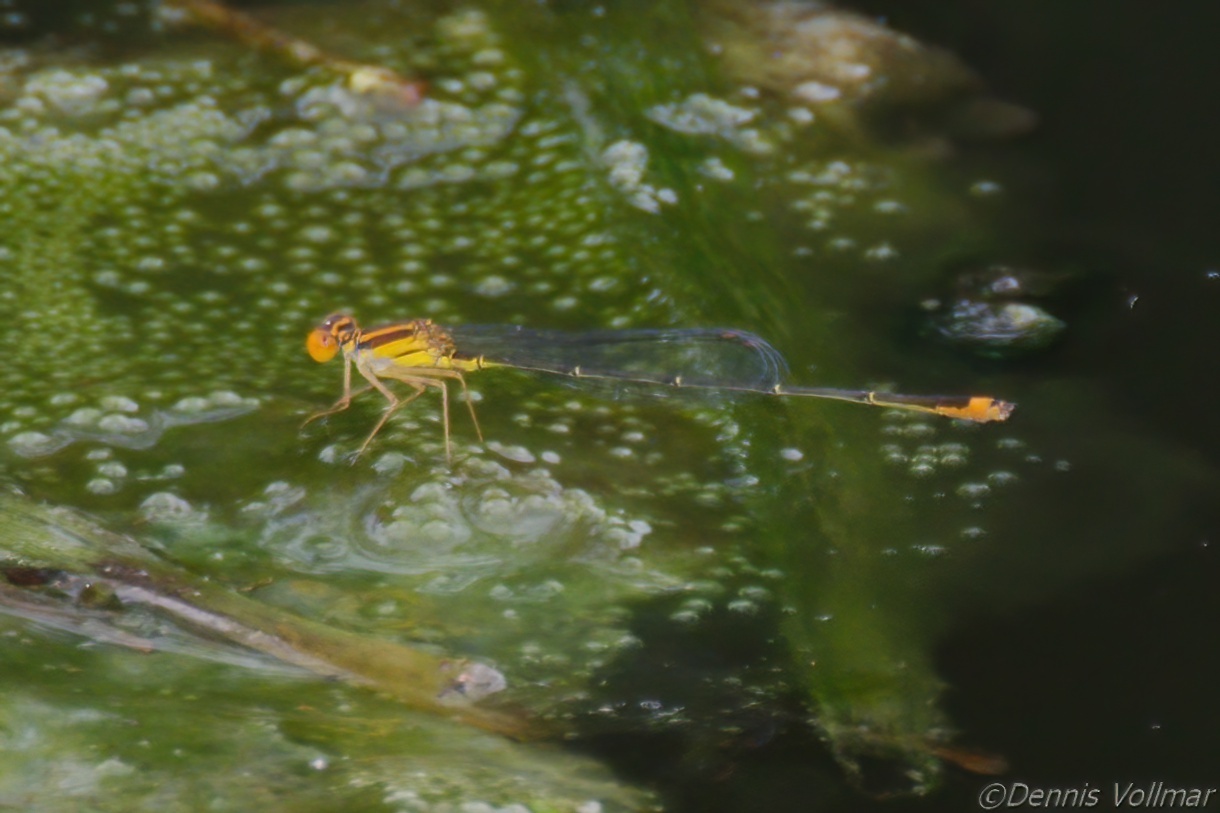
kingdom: Animalia
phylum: Arthropoda
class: Insecta
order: Odonata
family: Coenagrionidae
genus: Enallagma
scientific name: Enallagma pollutum
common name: Florida bluet
